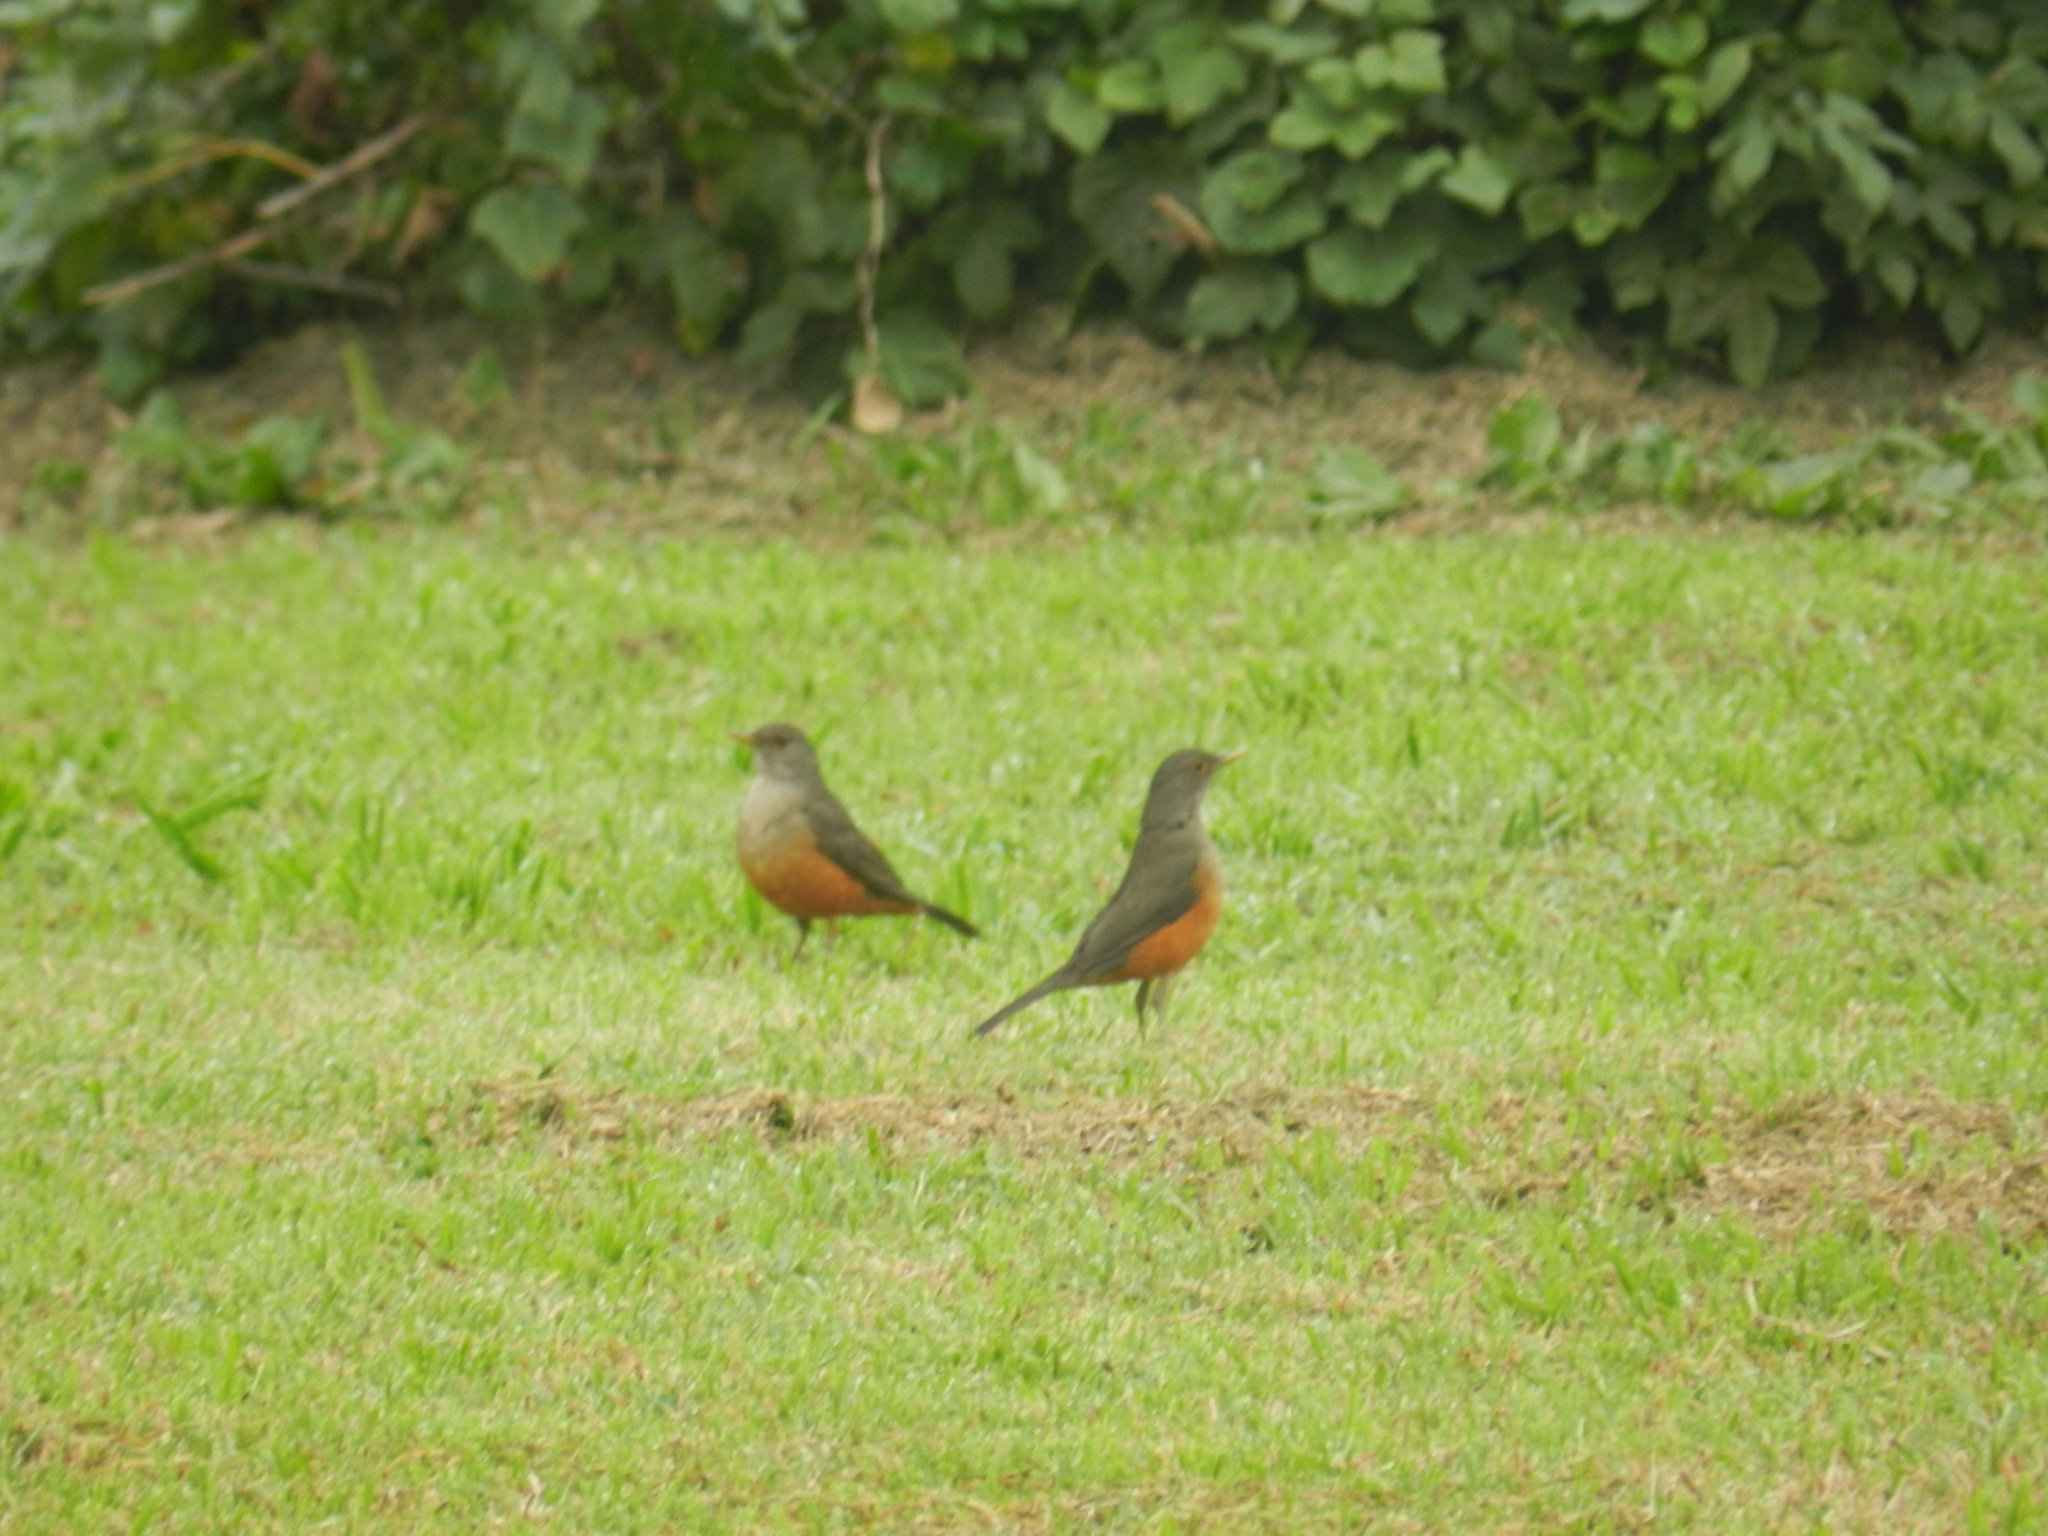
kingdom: Animalia
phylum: Chordata
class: Aves
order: Passeriformes
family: Turdidae
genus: Turdus
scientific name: Turdus rufiventris
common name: Rufous-bellied thrush
